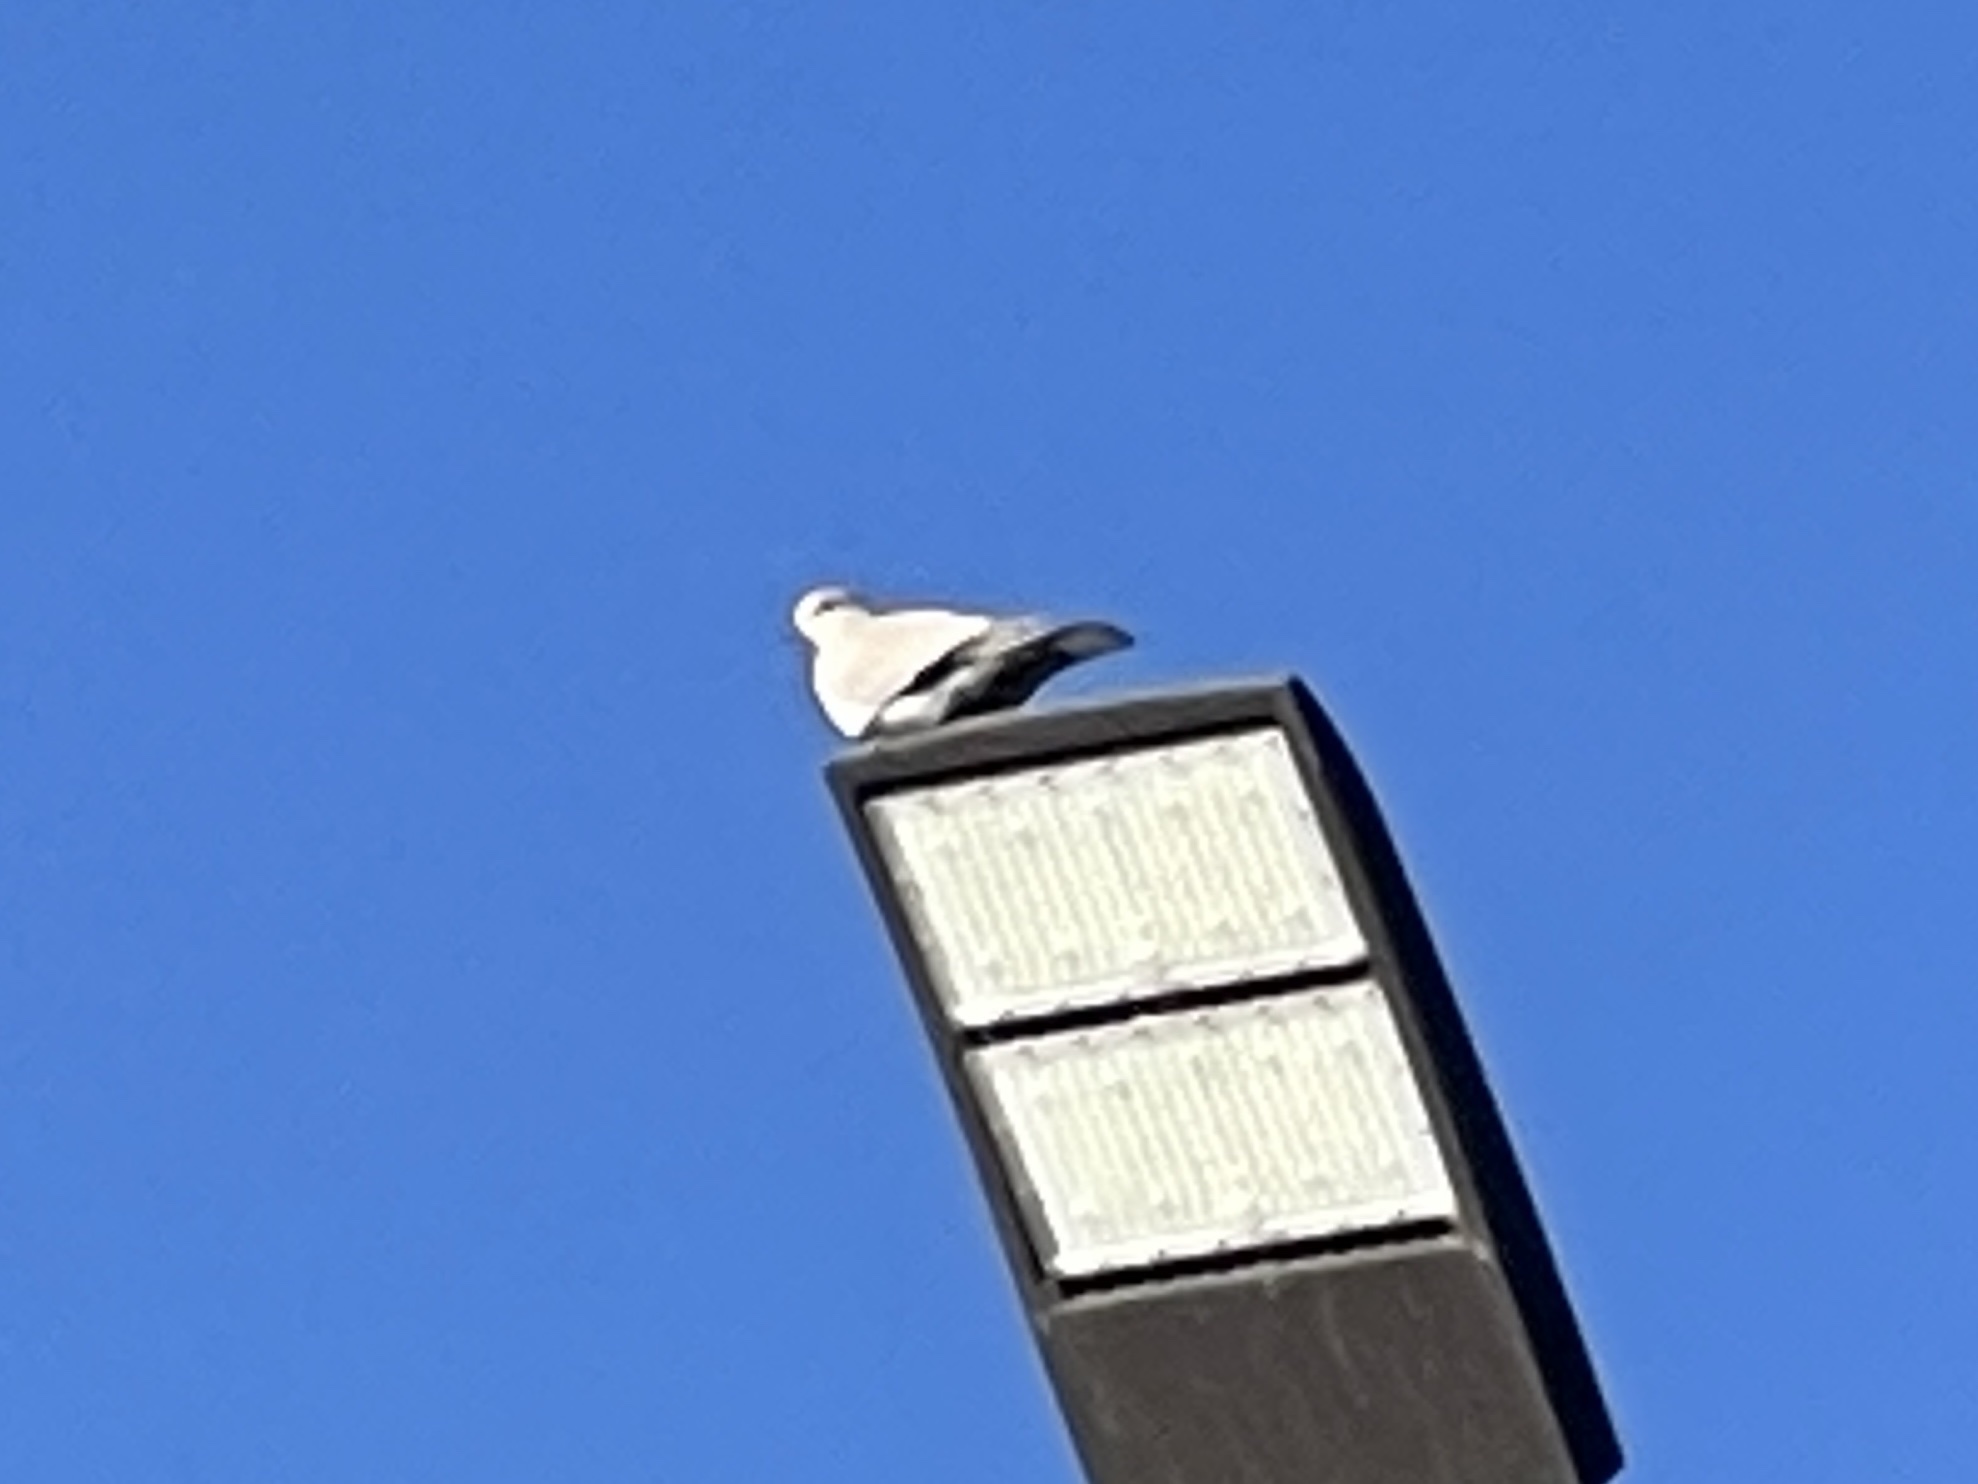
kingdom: Animalia
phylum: Chordata
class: Aves
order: Columbiformes
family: Columbidae
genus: Streptopelia
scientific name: Streptopelia decaocto
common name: Eurasian collared dove
